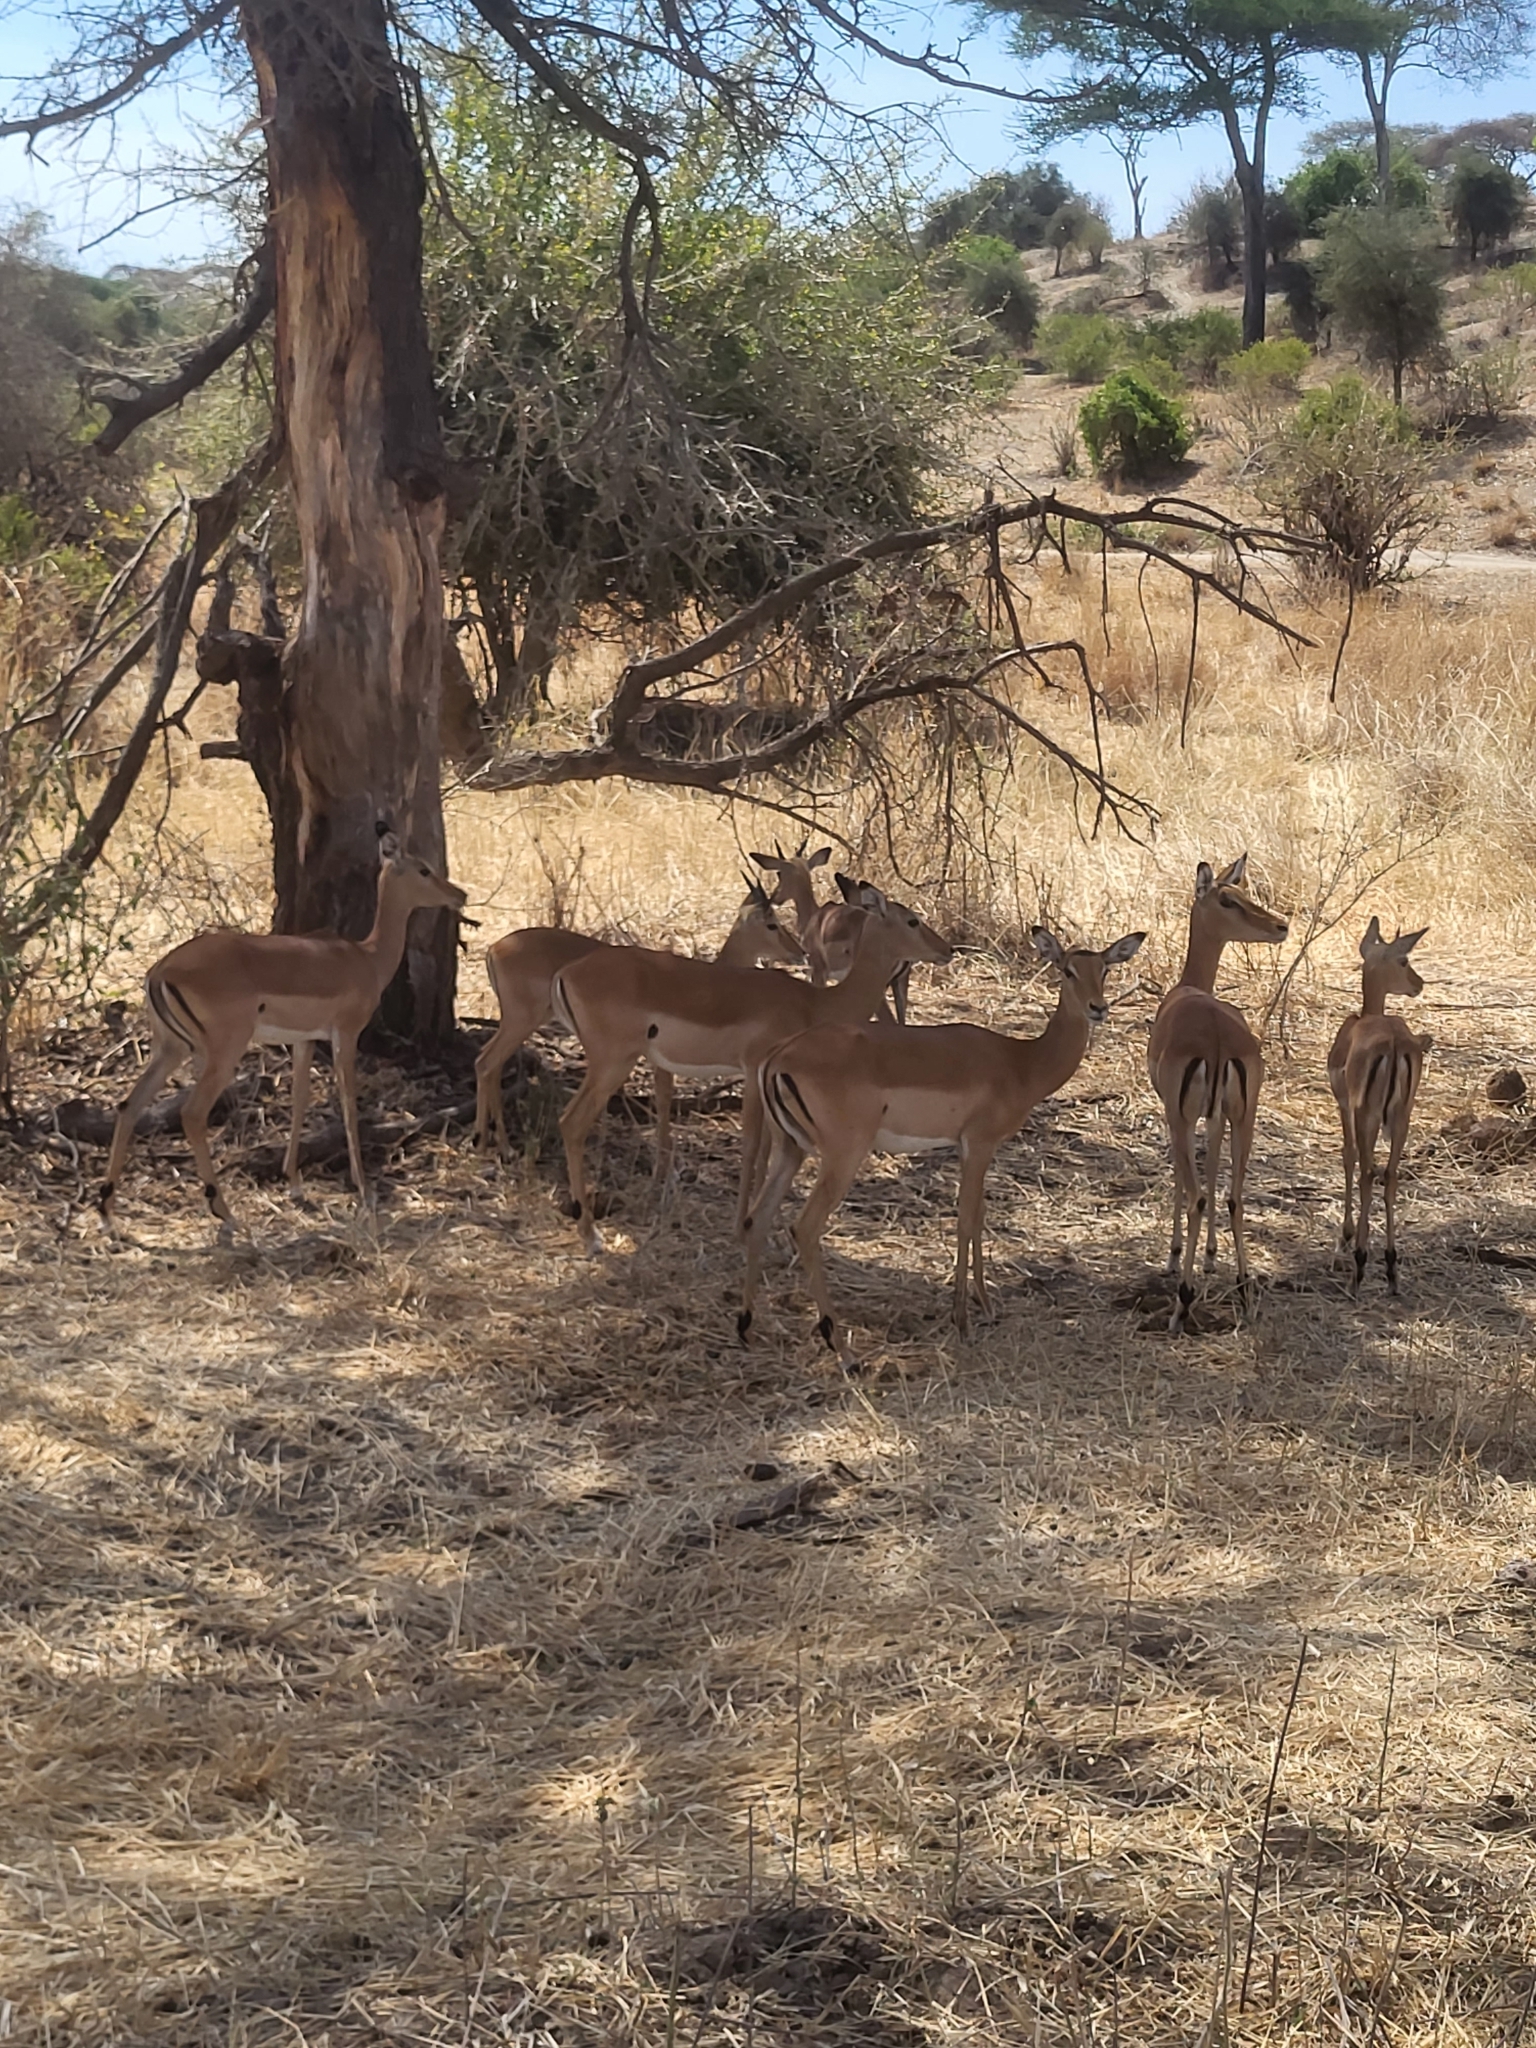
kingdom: Animalia
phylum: Chordata
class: Mammalia
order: Artiodactyla
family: Bovidae
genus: Aepyceros
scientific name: Aepyceros melampus
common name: Impala
